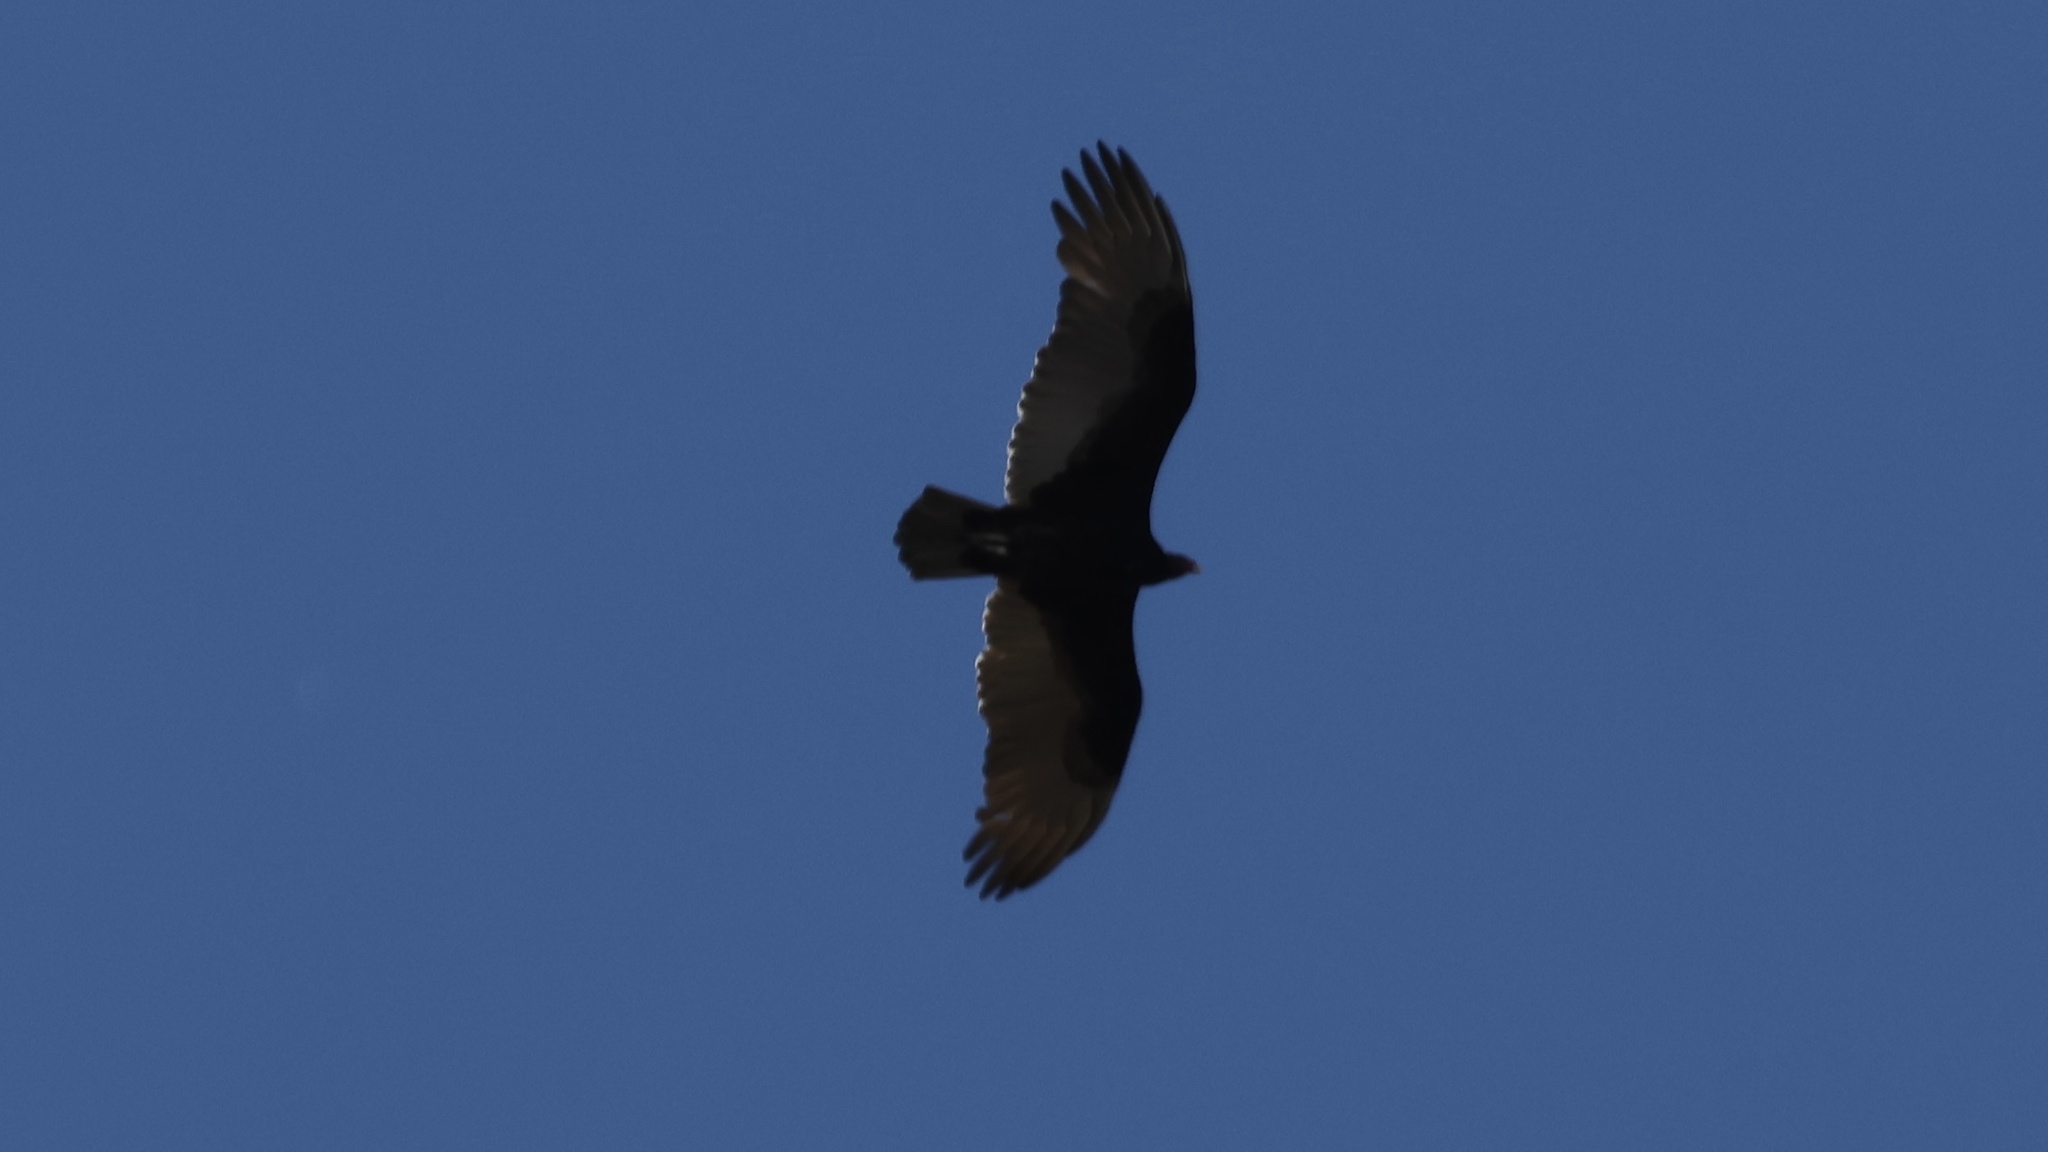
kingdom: Animalia
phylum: Chordata
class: Aves
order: Accipitriformes
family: Cathartidae
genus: Cathartes
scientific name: Cathartes aura
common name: Turkey vulture
